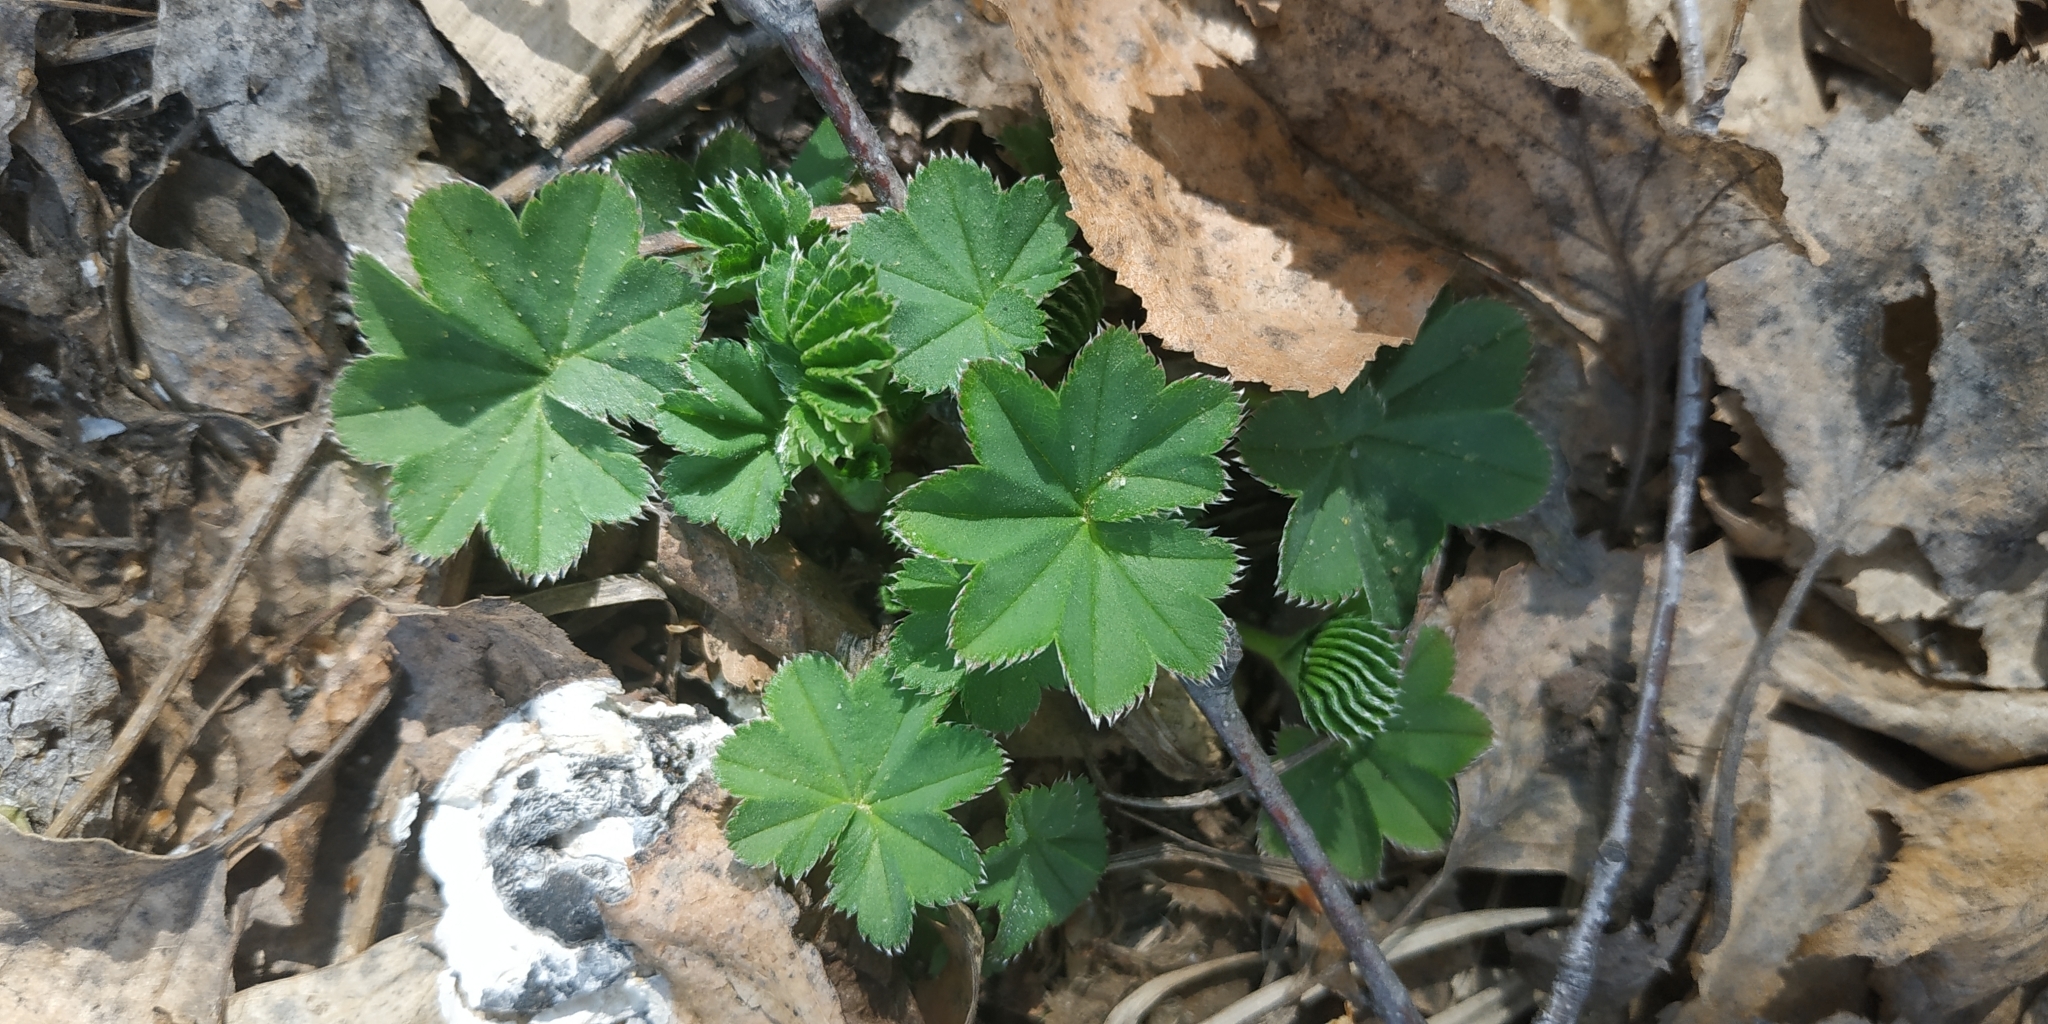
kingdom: Plantae
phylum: Tracheophyta
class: Magnoliopsida
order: Rosales
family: Rosaceae
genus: Alchemilla
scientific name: Alchemilla
